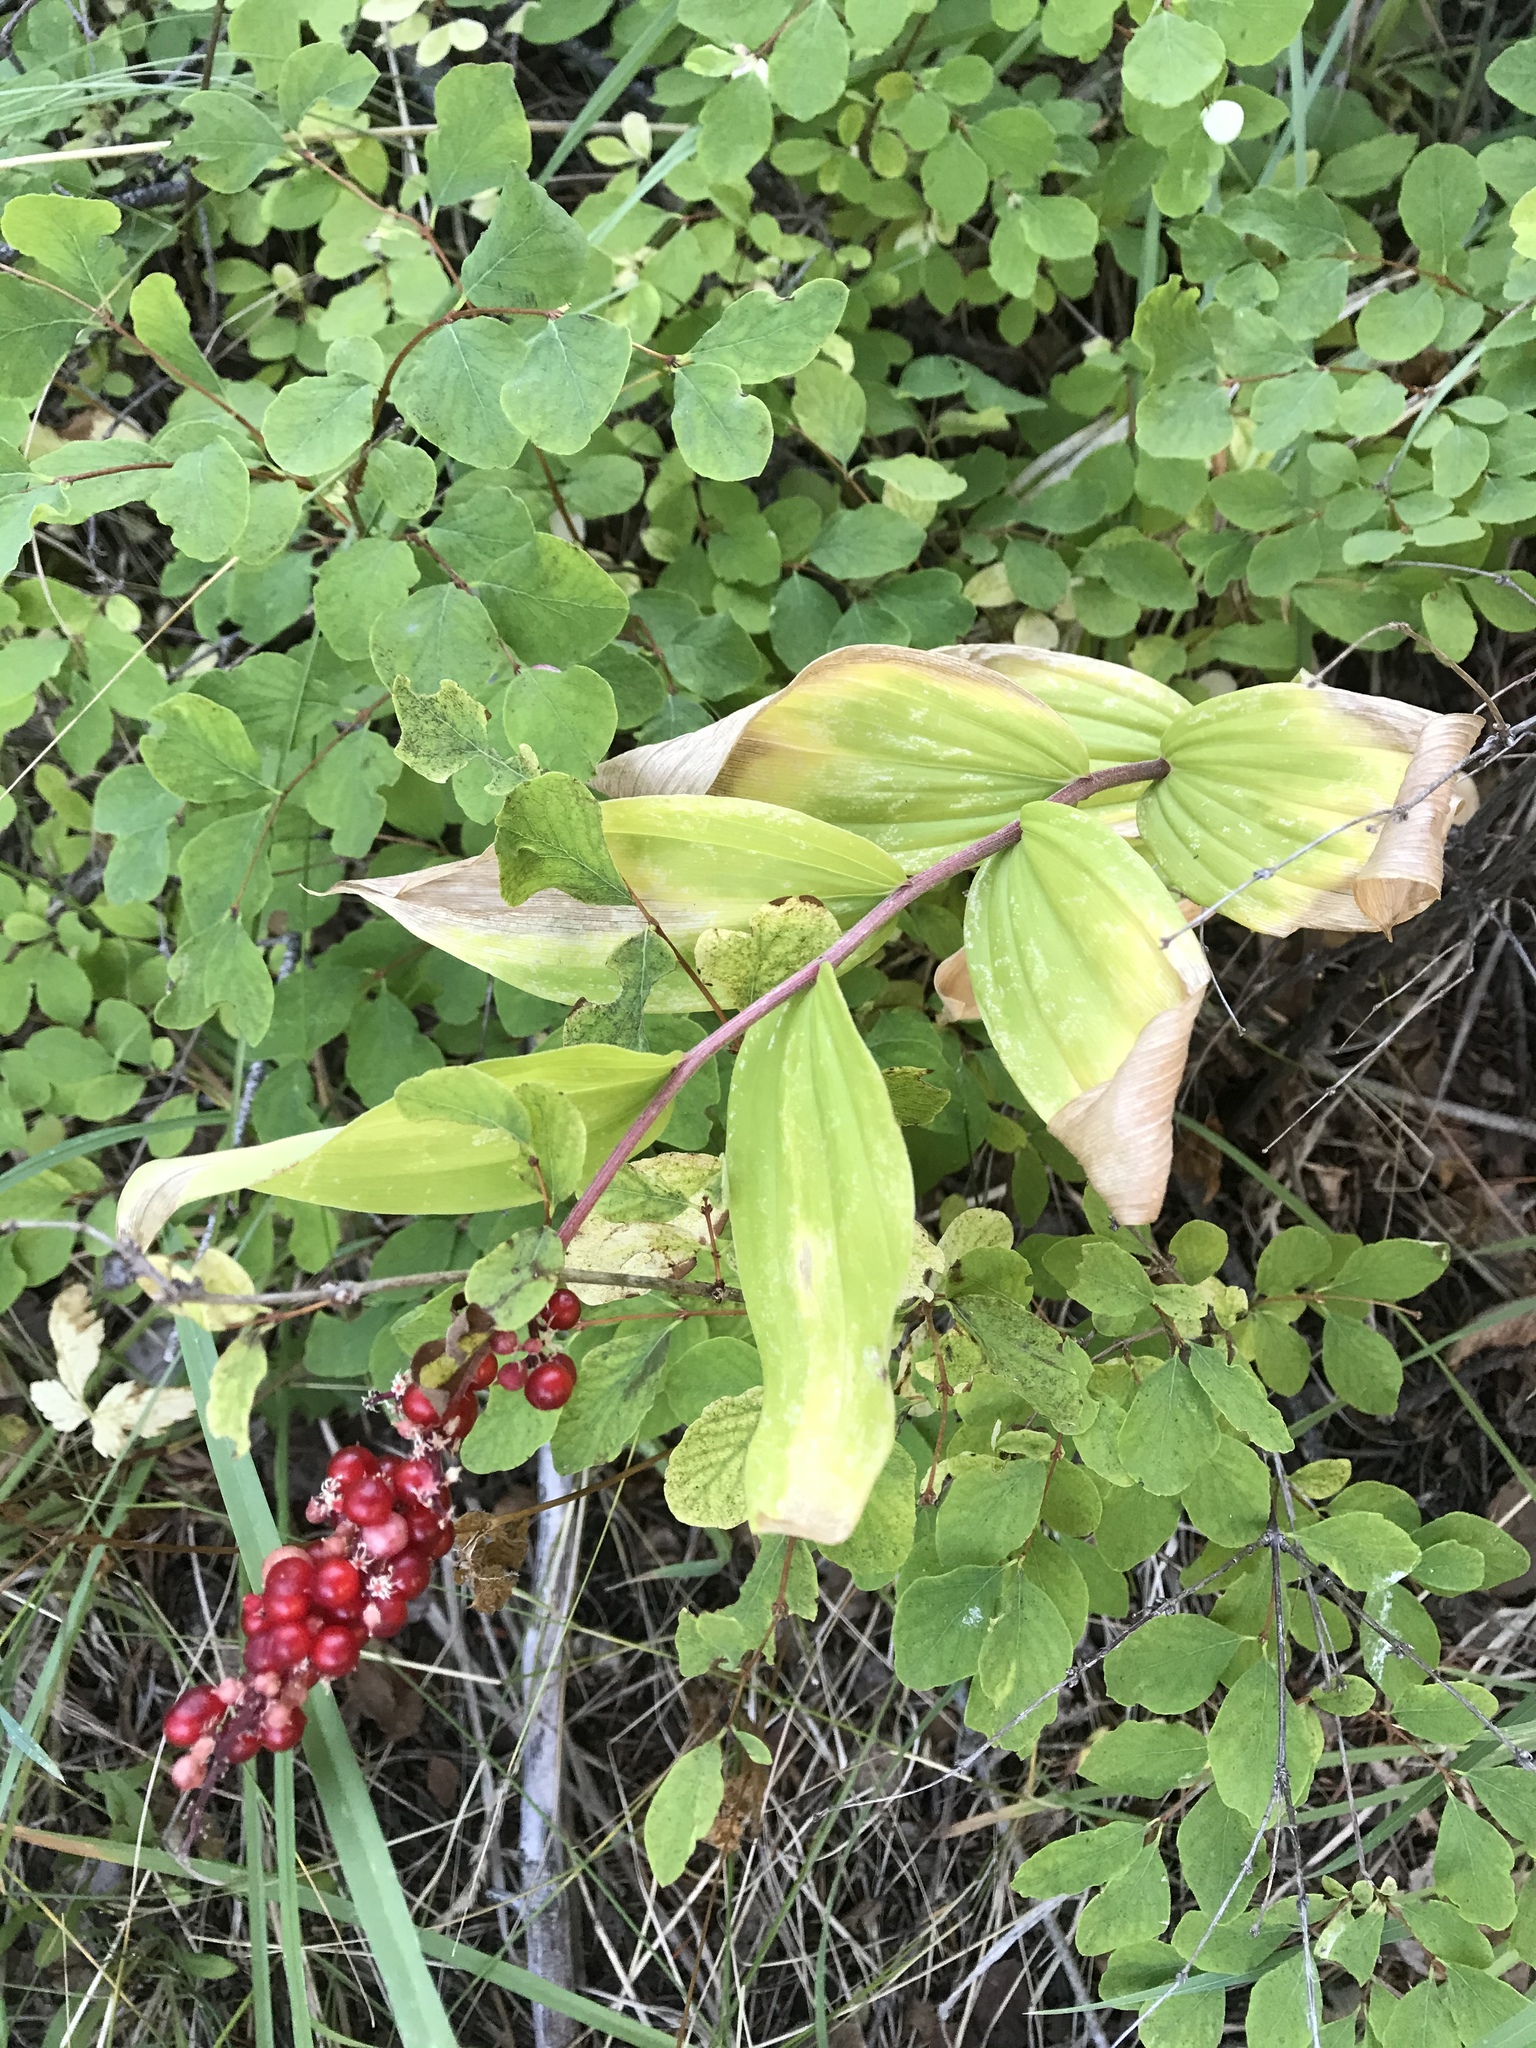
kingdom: Plantae
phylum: Tracheophyta
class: Liliopsida
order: Asparagales
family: Asparagaceae
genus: Maianthemum
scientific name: Maianthemum racemosum
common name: False spikenard
